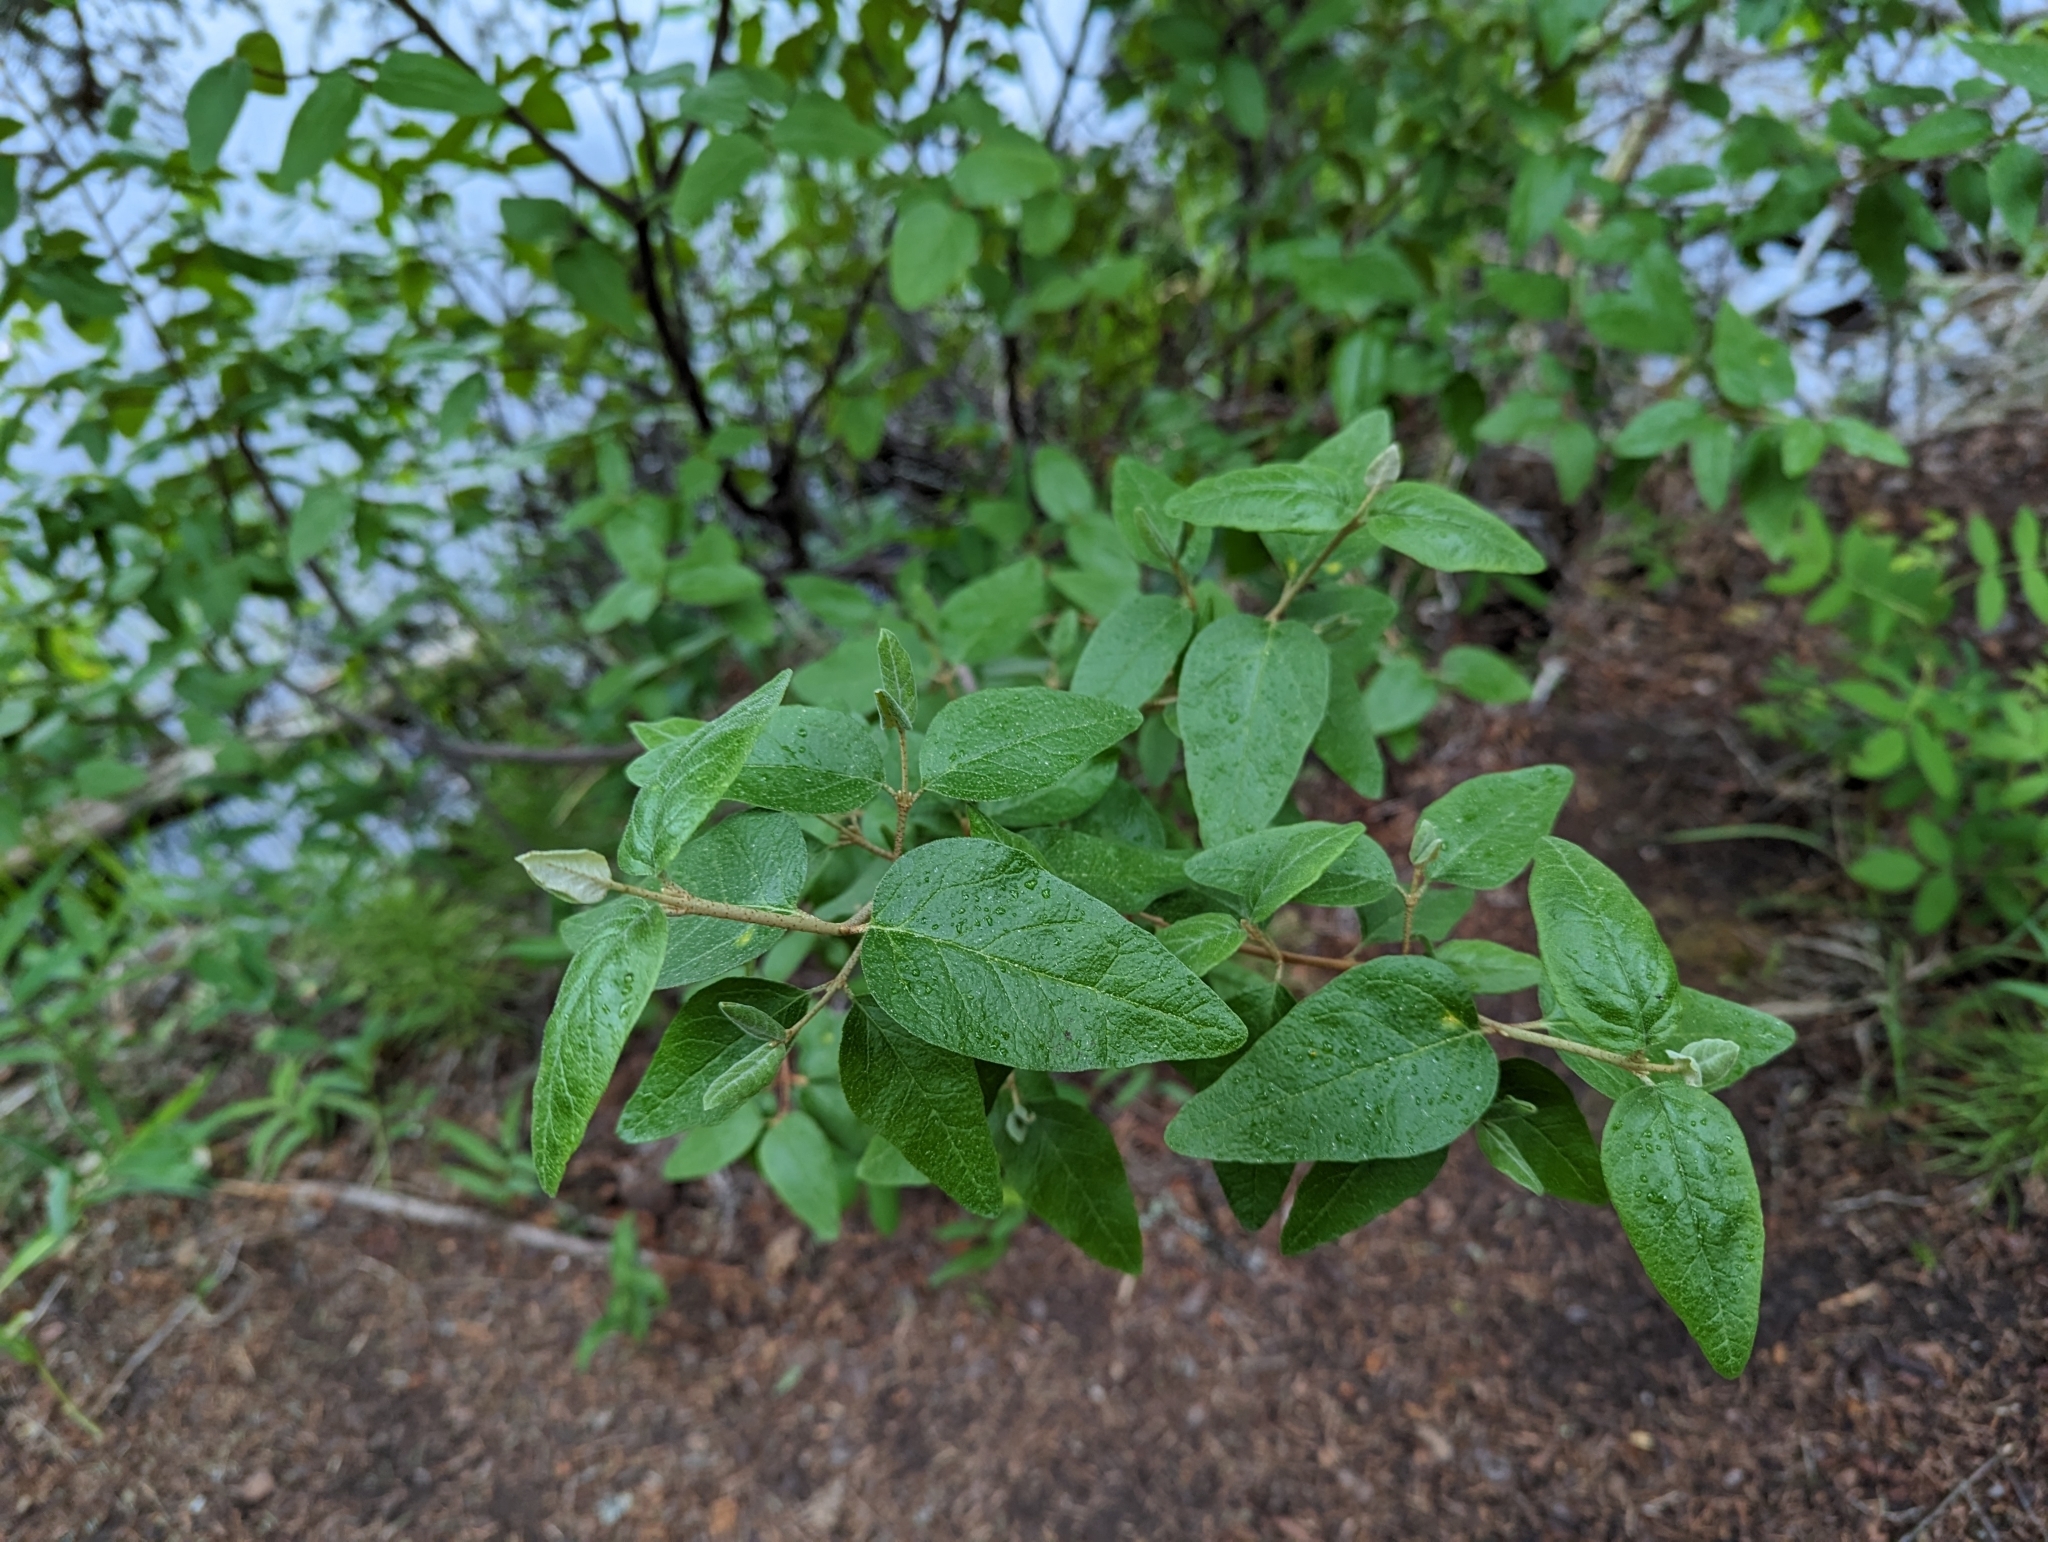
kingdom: Plantae
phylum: Tracheophyta
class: Magnoliopsida
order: Rosales
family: Elaeagnaceae
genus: Shepherdia
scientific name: Shepherdia canadensis
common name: Soapberry
